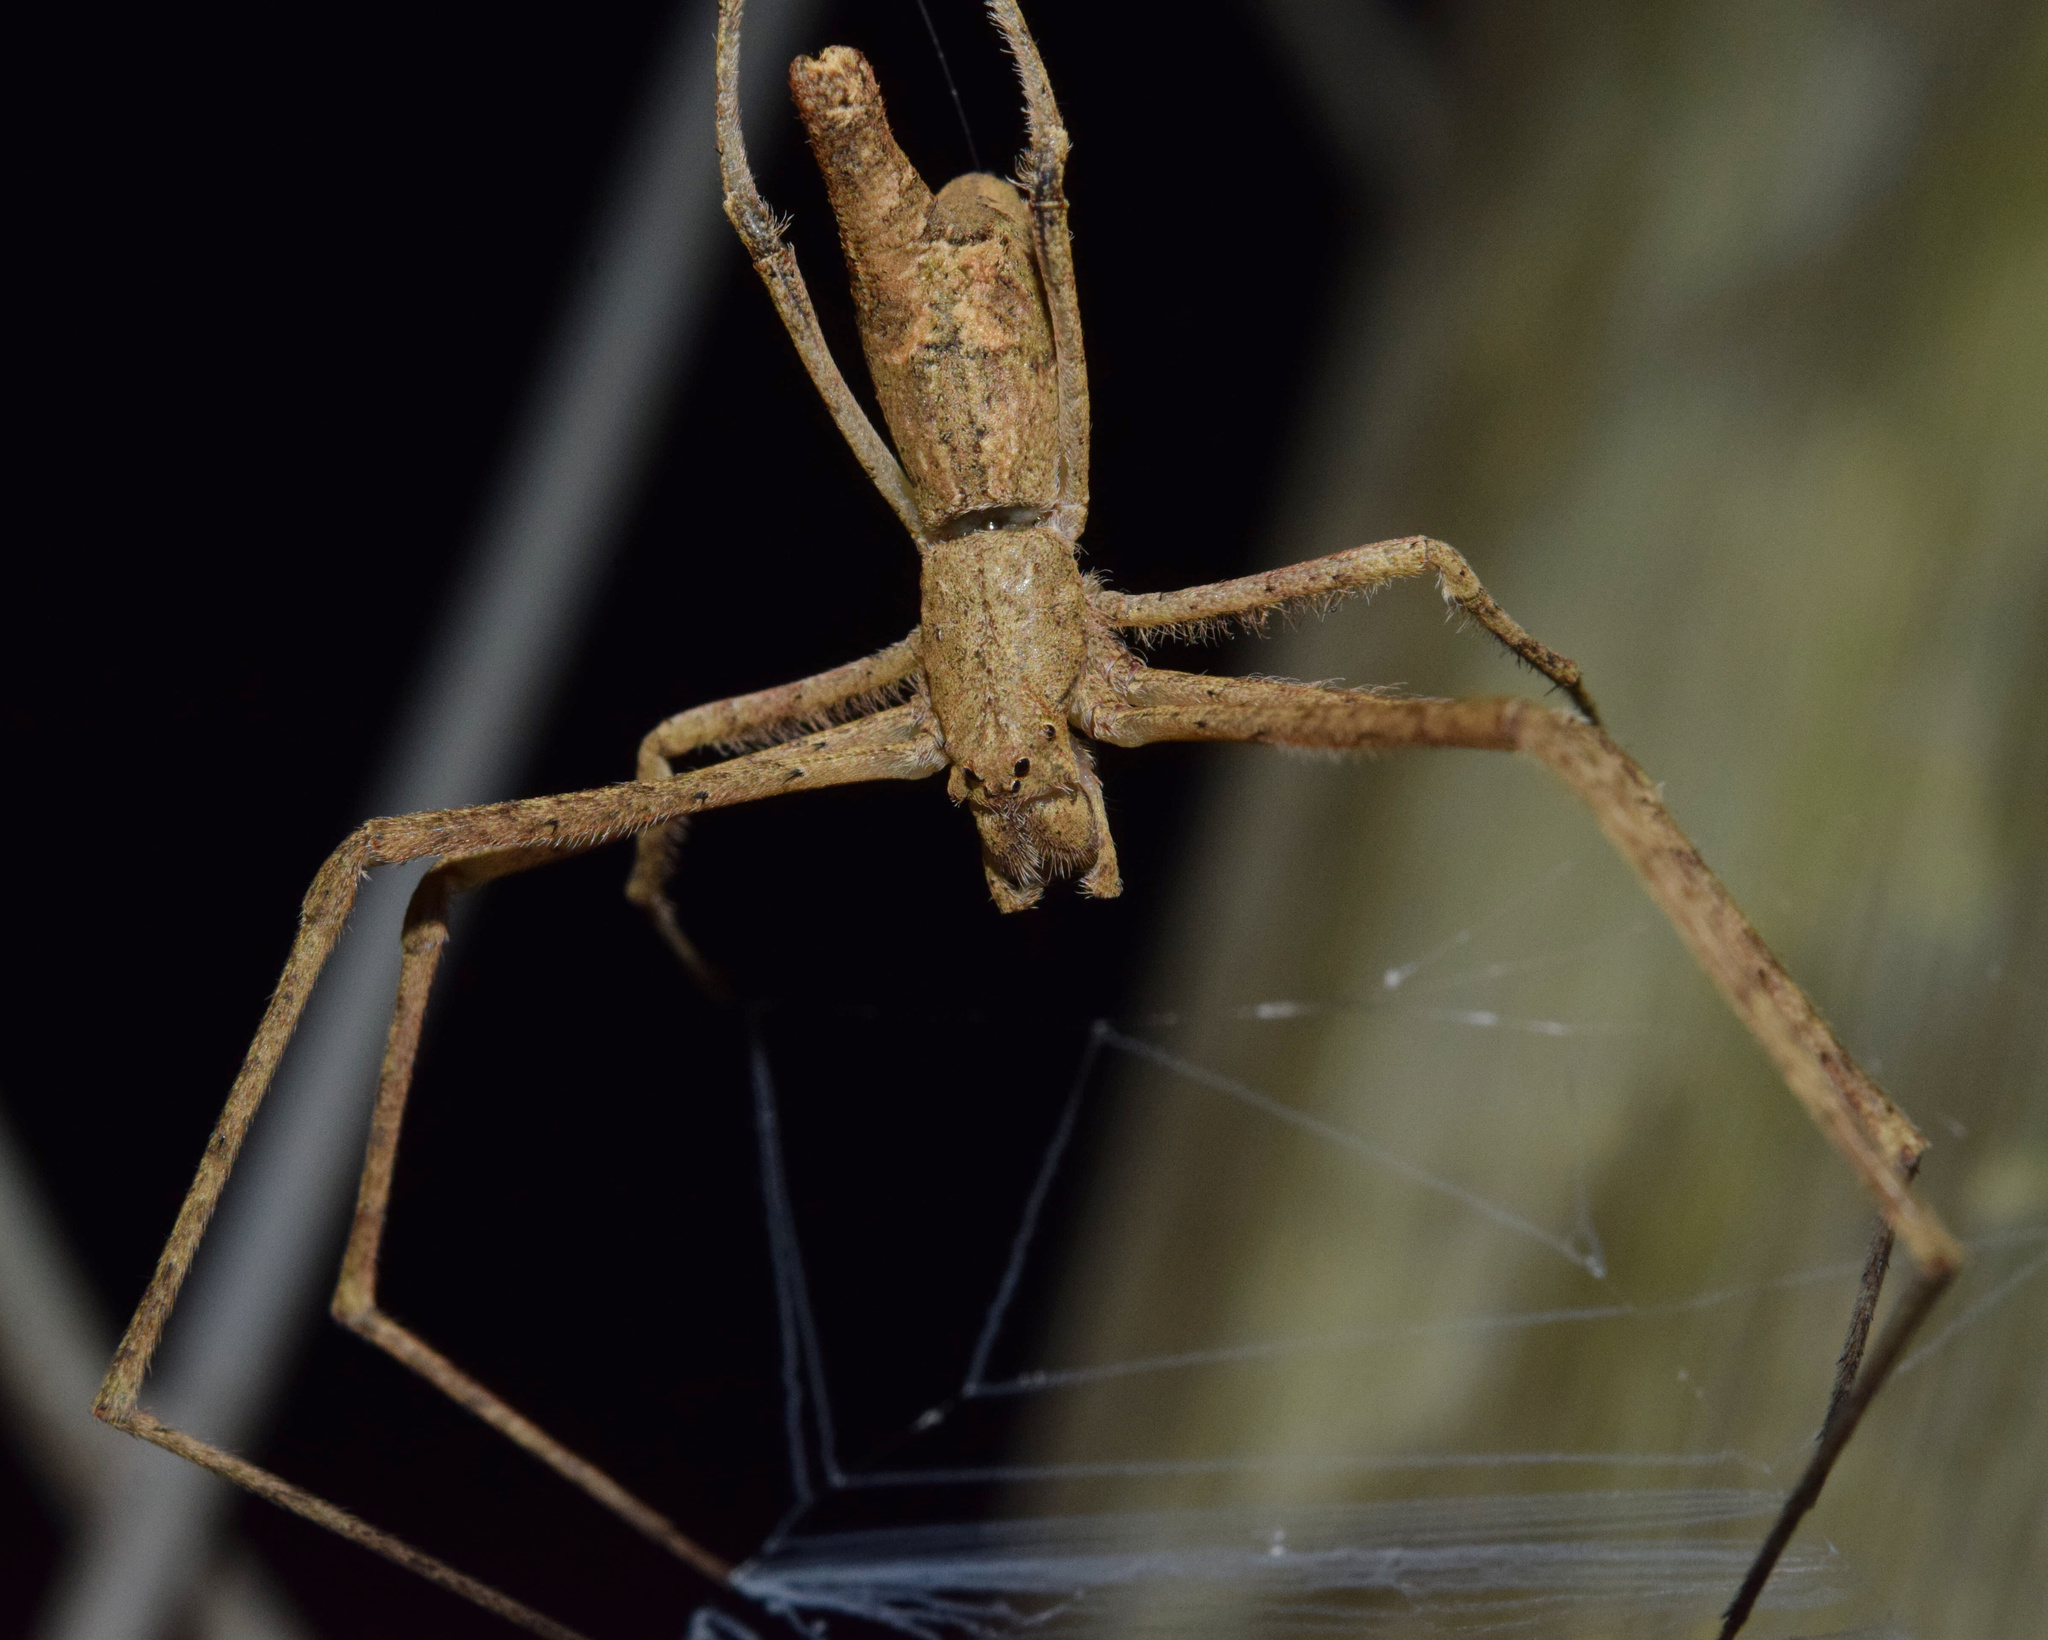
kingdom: Animalia
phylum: Arthropoda
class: Arachnida
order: Araneae
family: Deinopidae
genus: Menneus
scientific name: Menneus camelus
